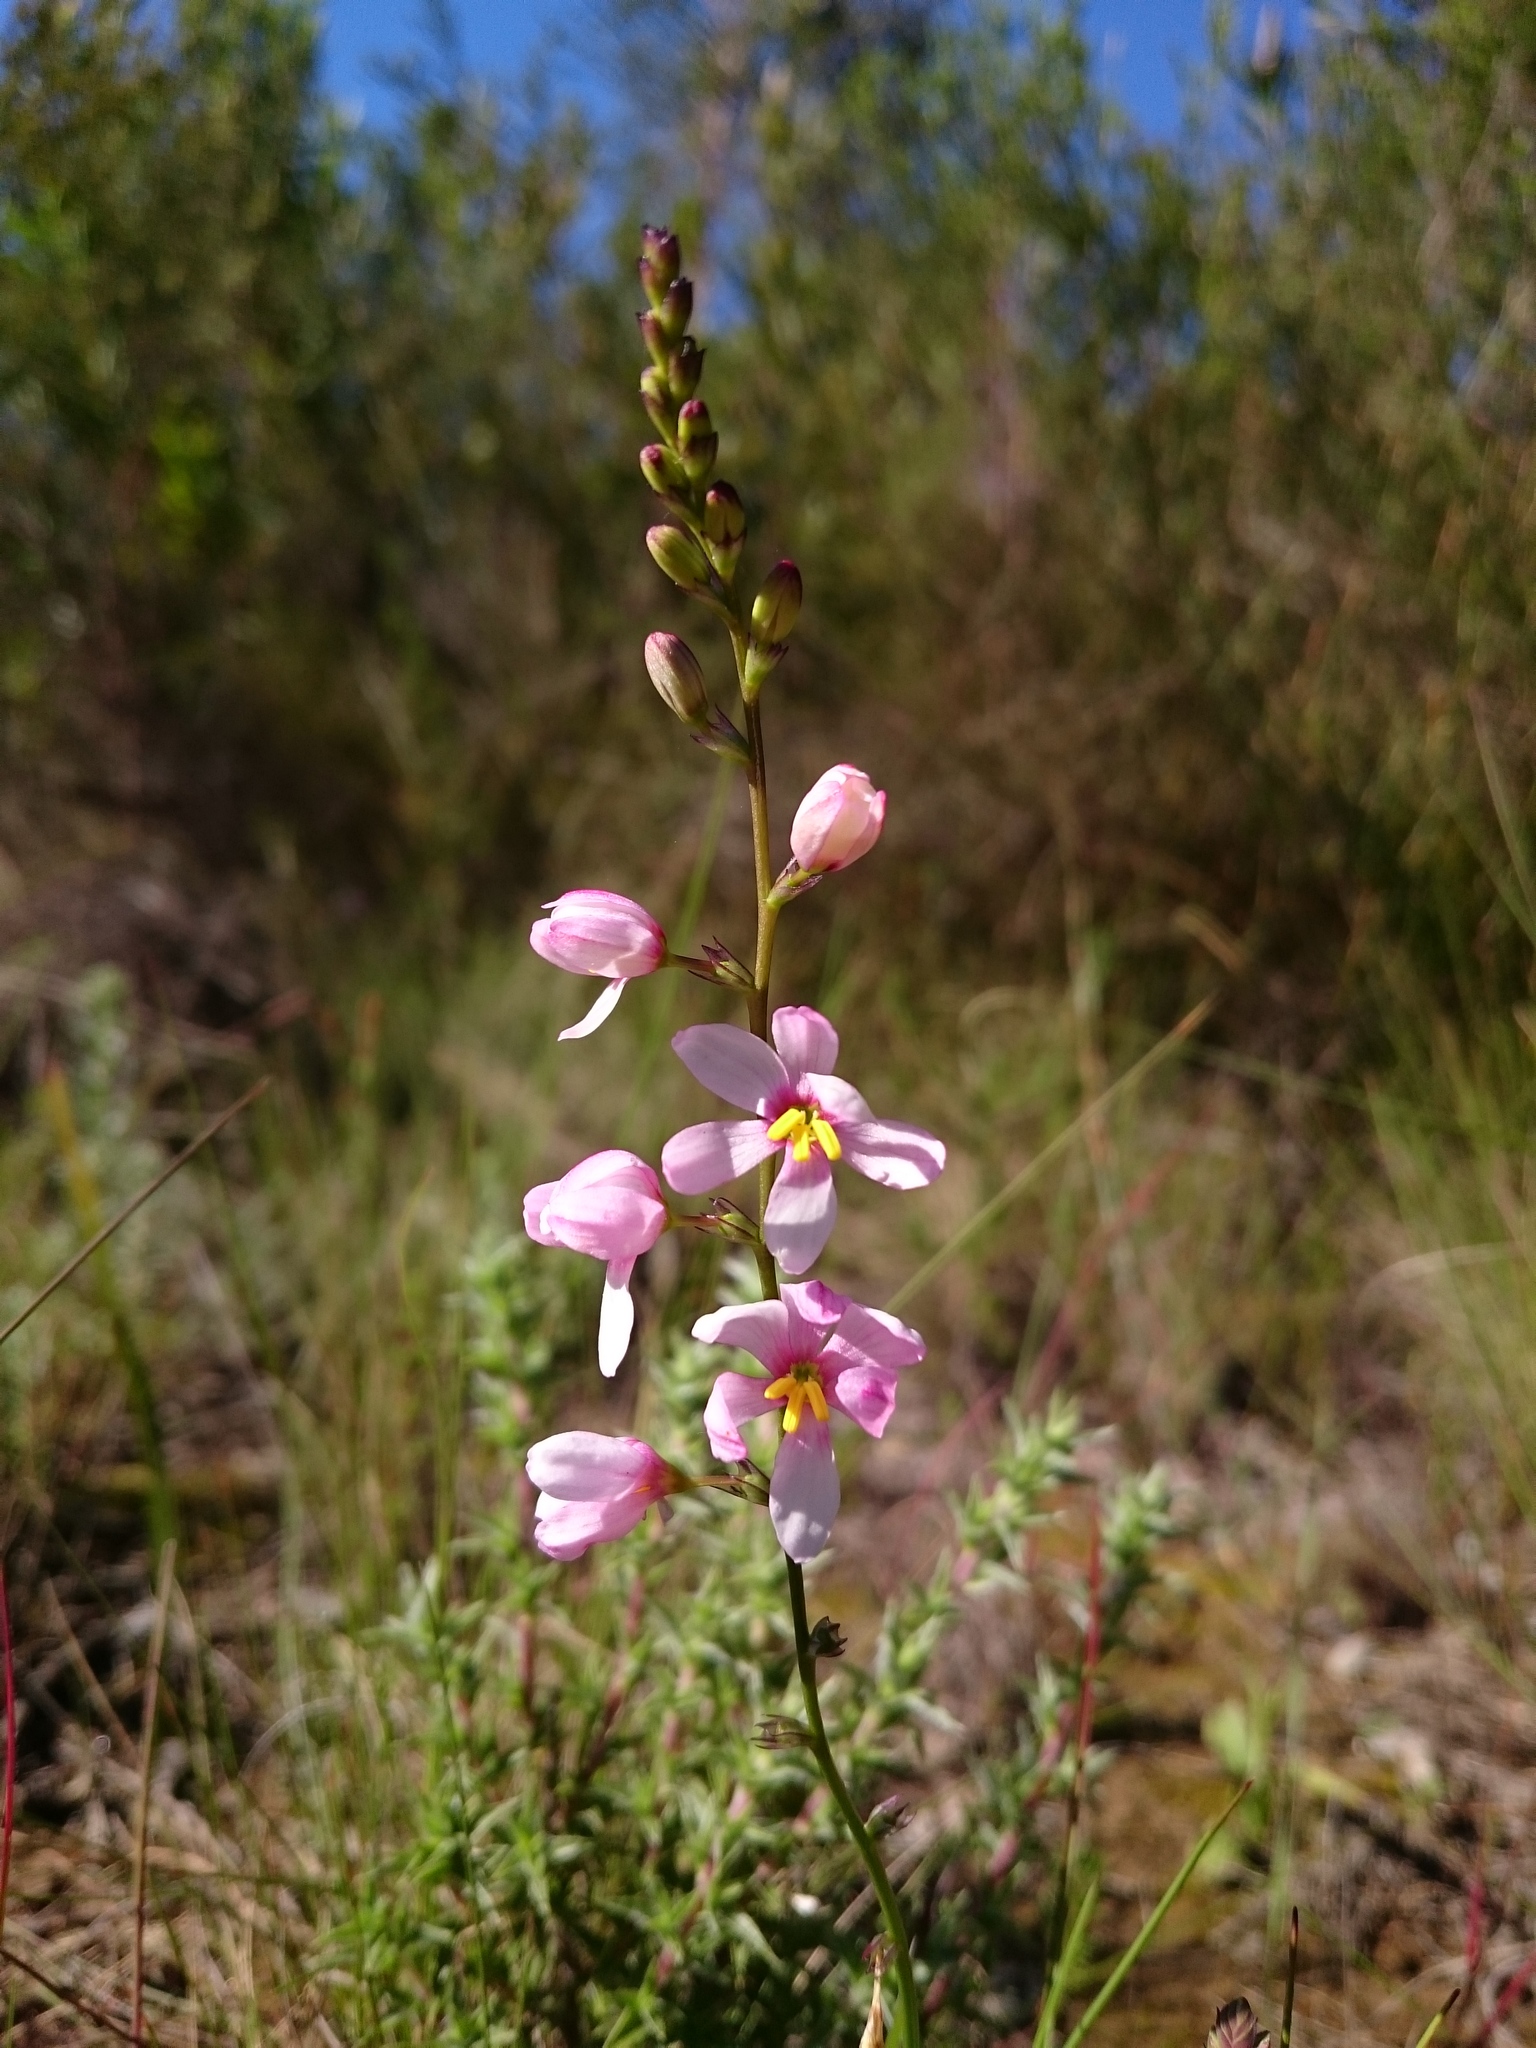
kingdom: Plantae
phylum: Tracheophyta
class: Liliopsida
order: Asparagales
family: Iridaceae
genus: Ixia
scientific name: Ixia scillaris
